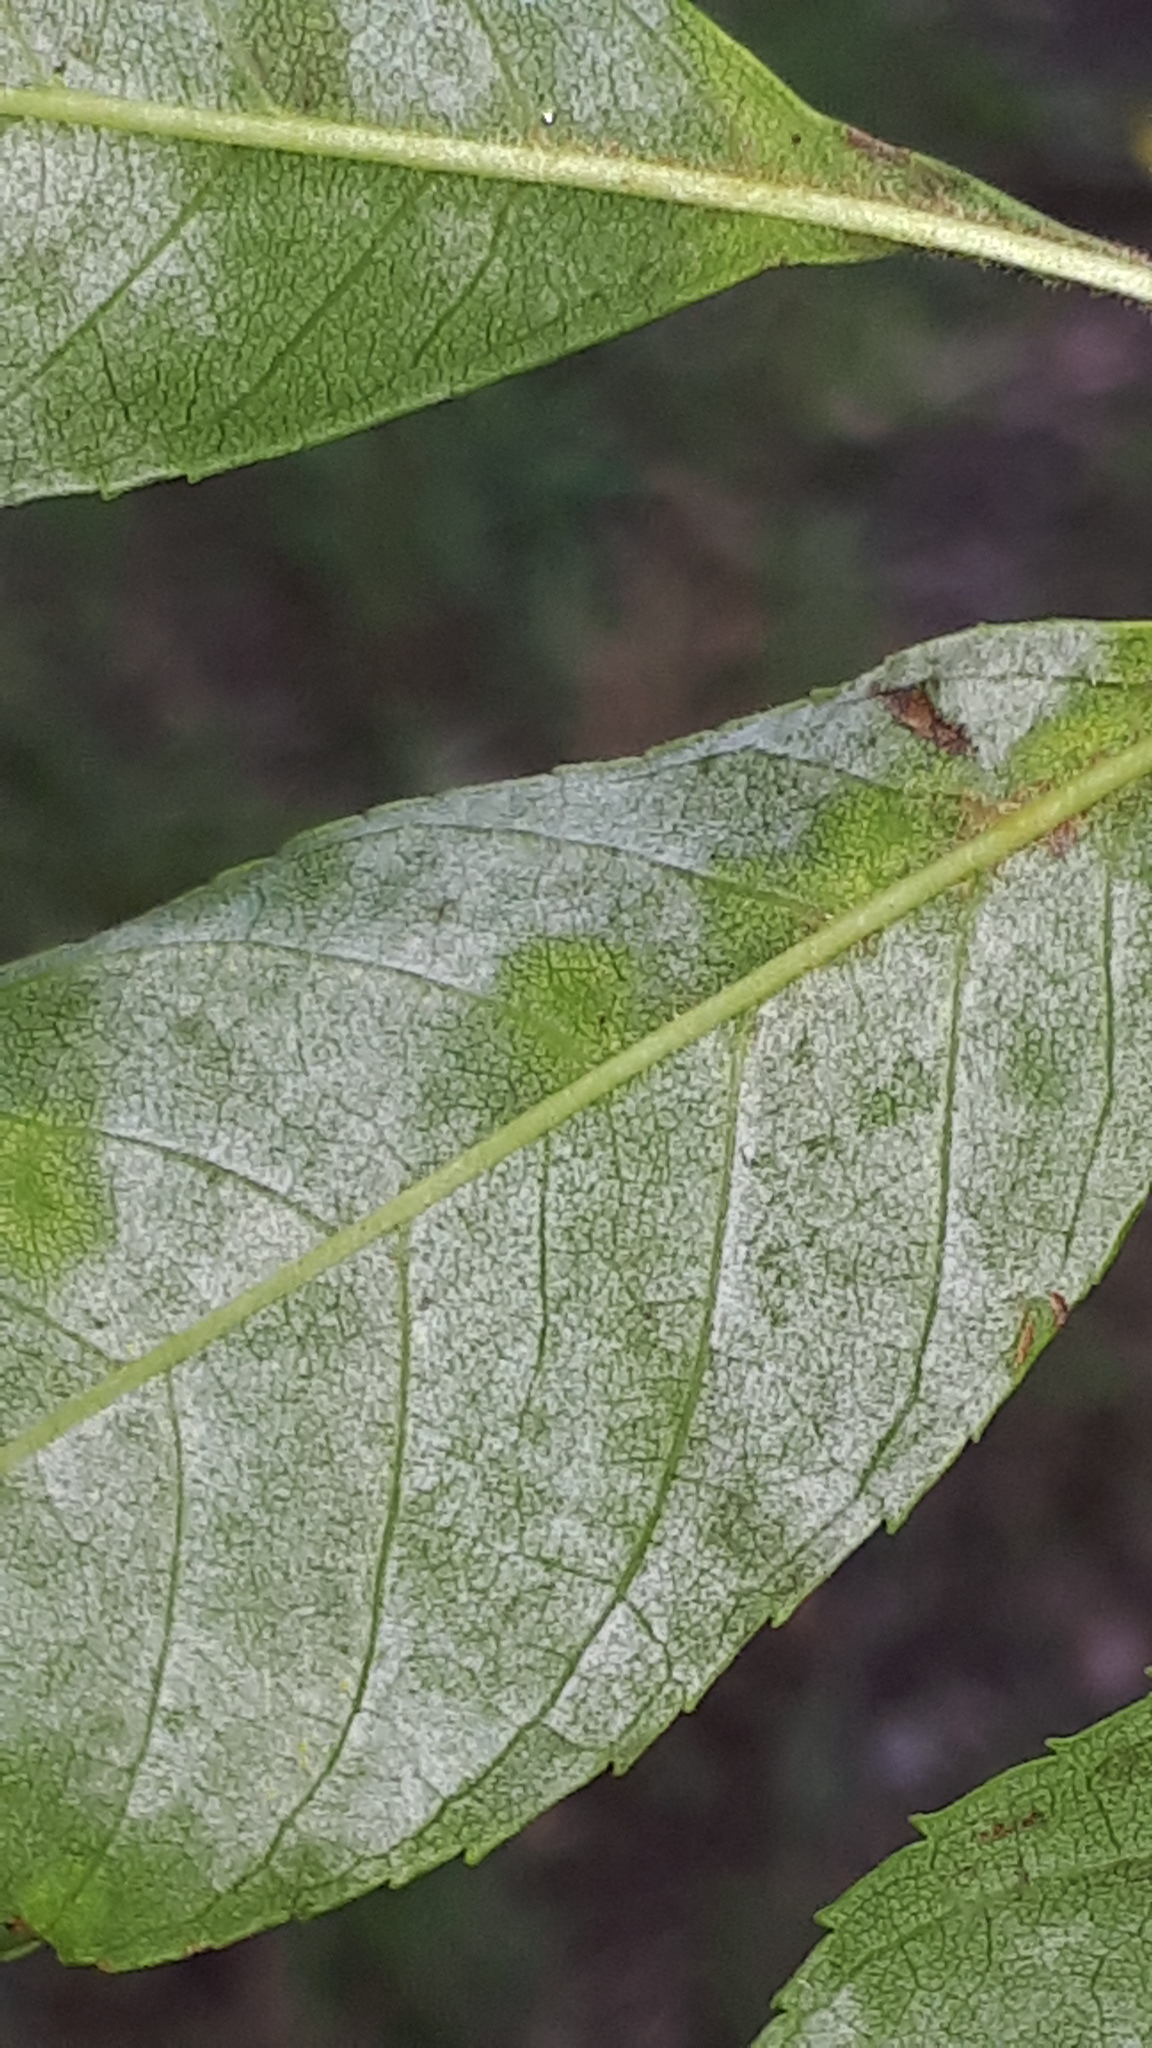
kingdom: Fungi
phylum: Ascomycota
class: Leotiomycetes
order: Helotiales
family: Erysiphaceae
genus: Phyllactinia
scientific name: Phyllactinia fraxini
